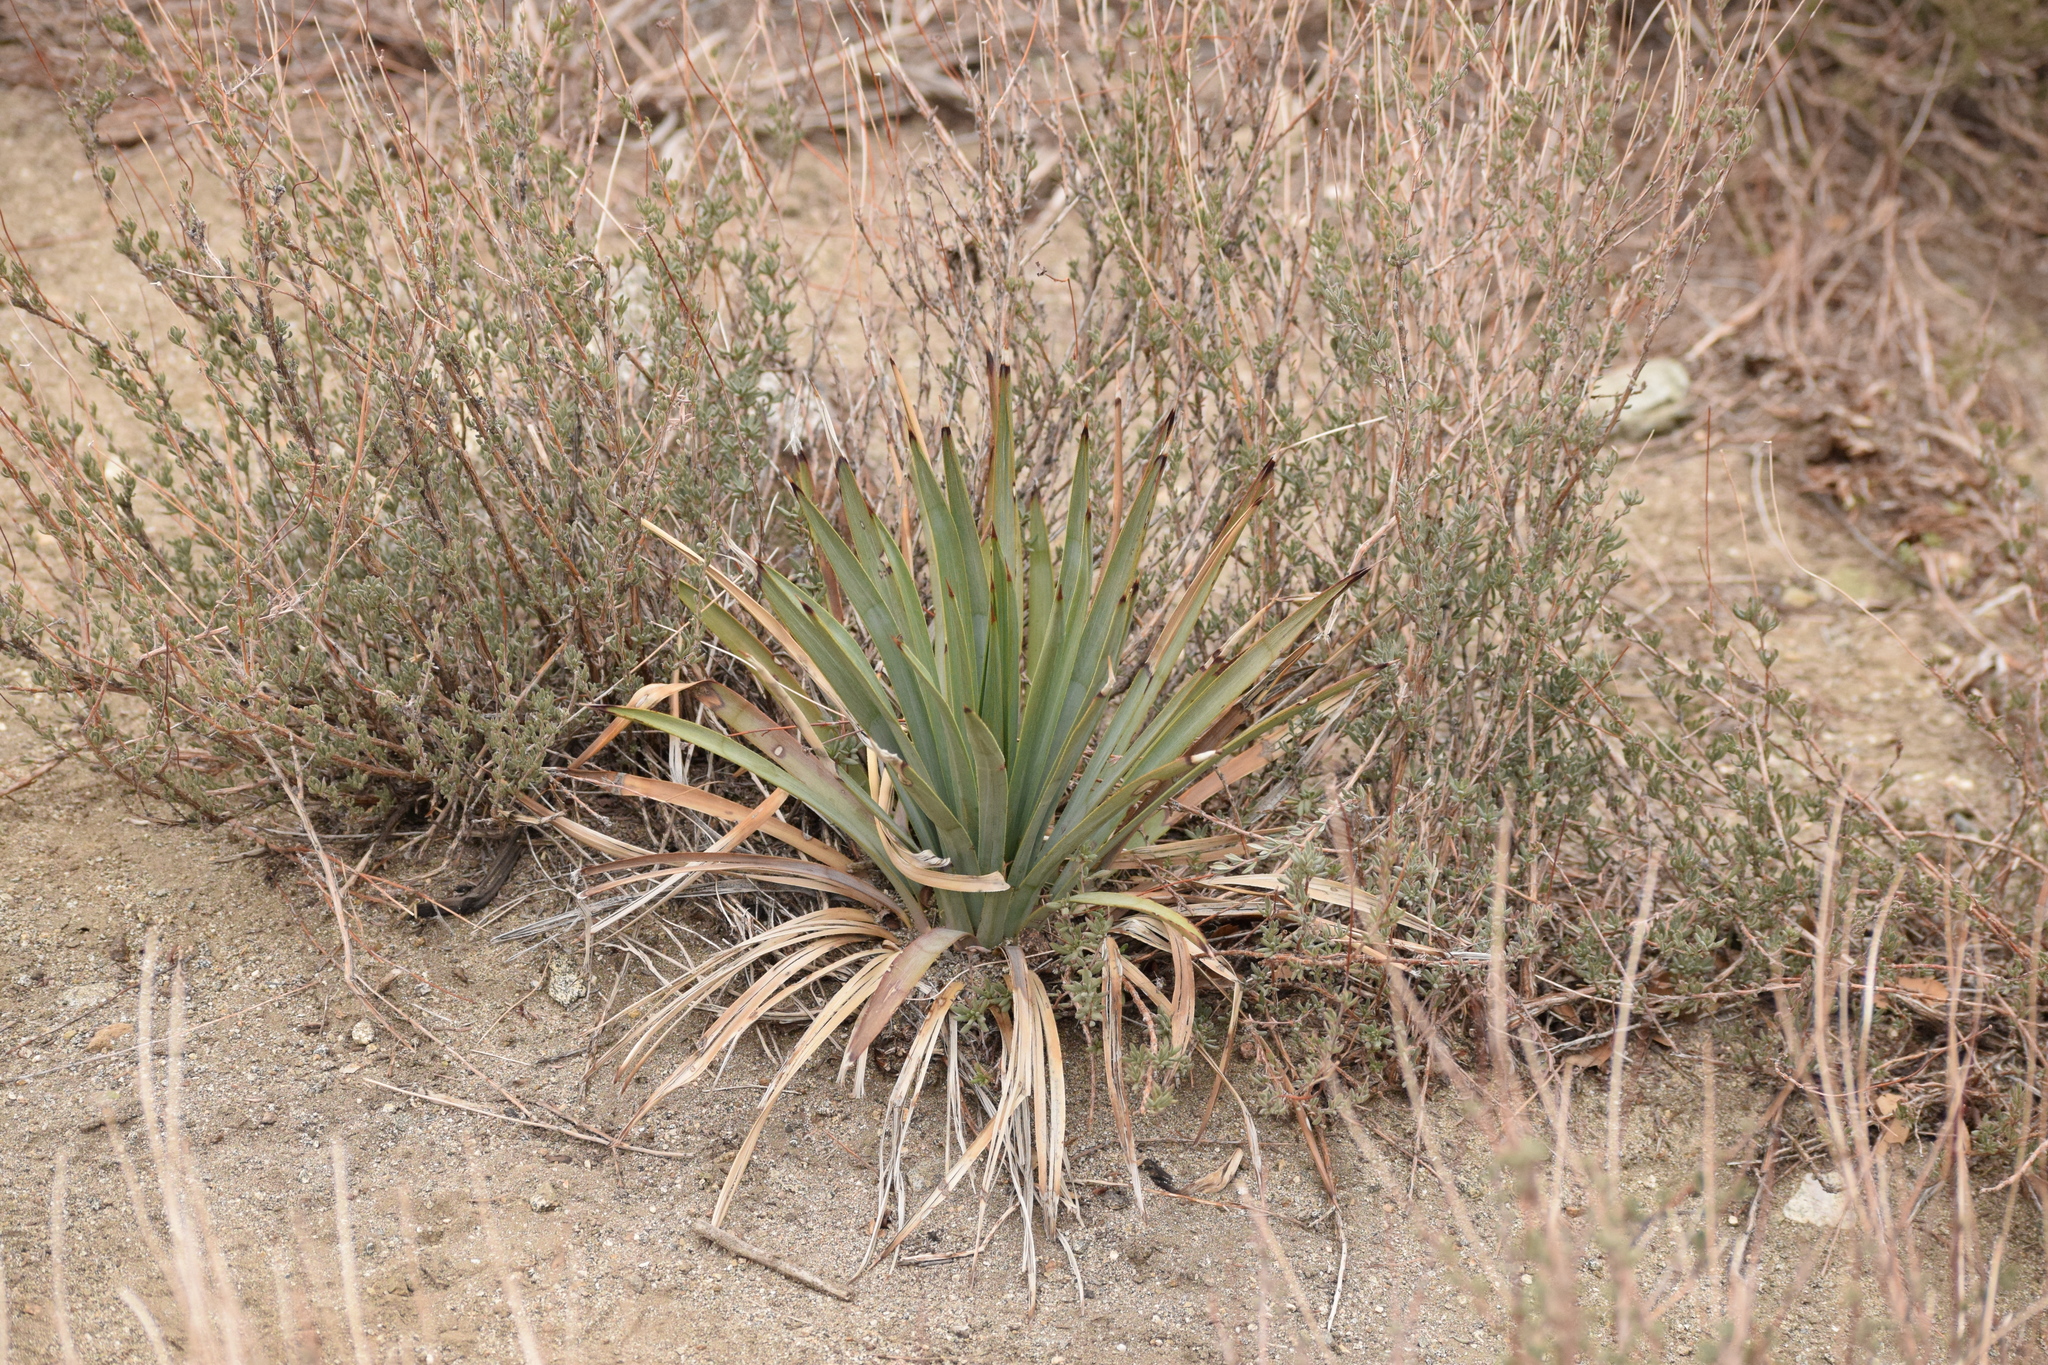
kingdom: Plantae
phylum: Tracheophyta
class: Liliopsida
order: Asparagales
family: Asparagaceae
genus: Hesperoyucca
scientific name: Hesperoyucca whipplei
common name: Our lord's-candle
